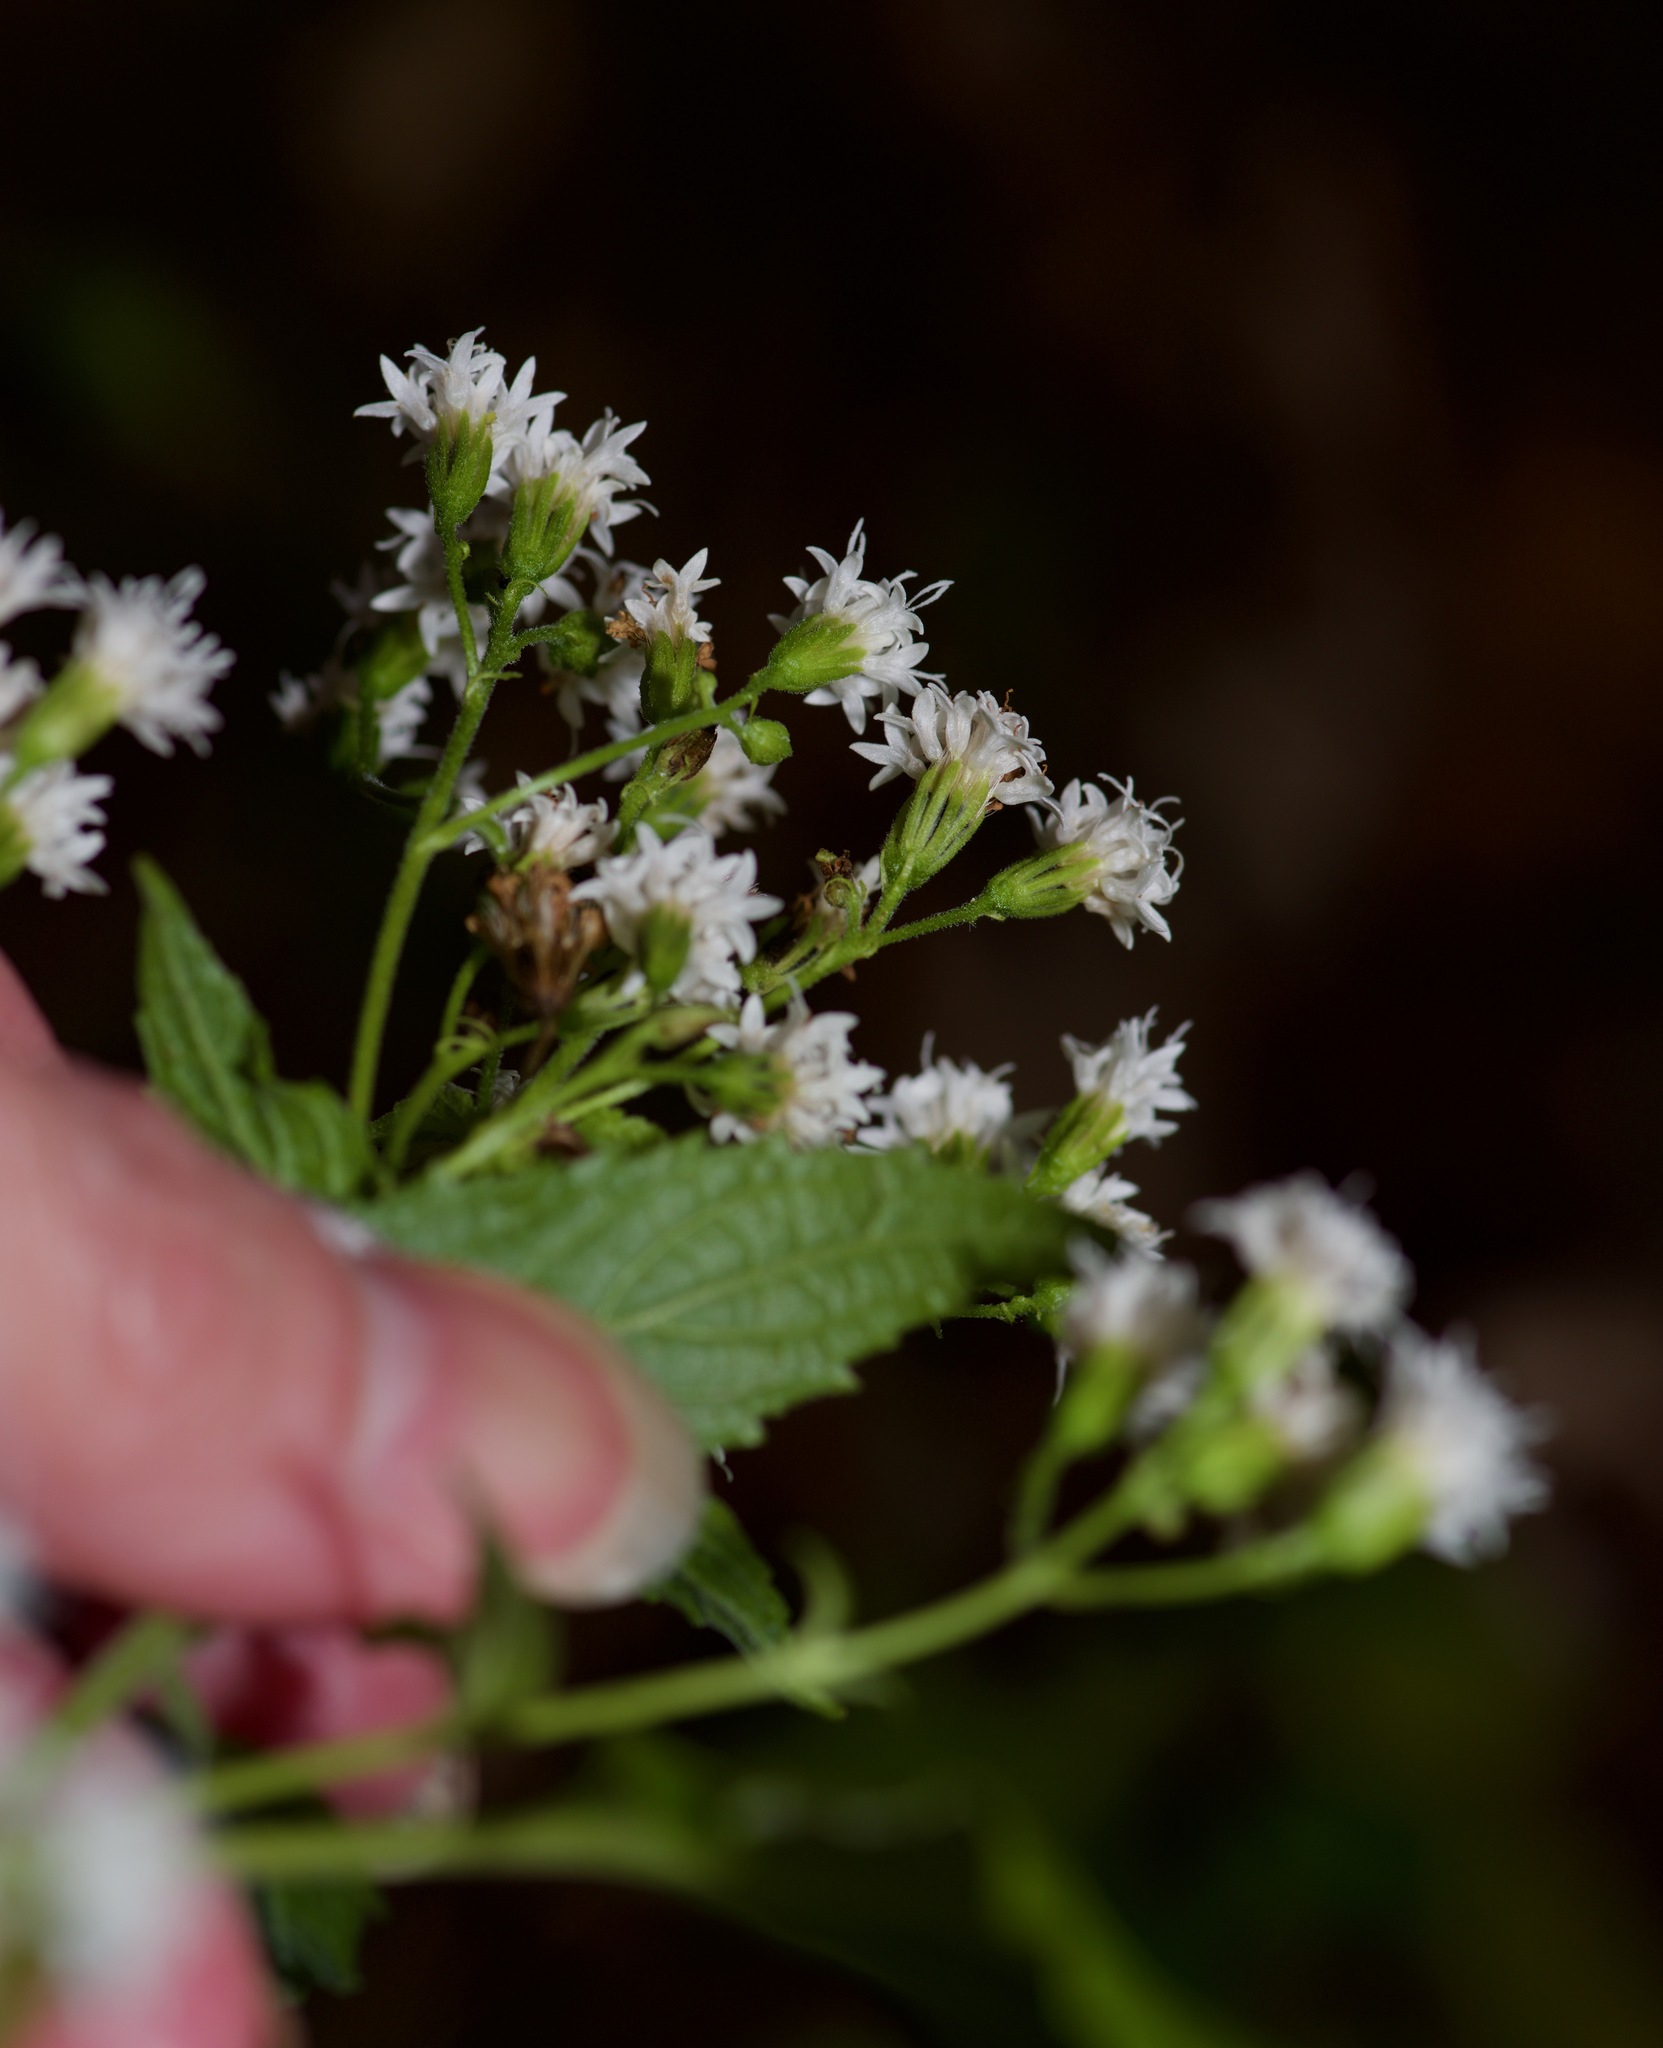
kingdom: Plantae
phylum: Tracheophyta
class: Magnoliopsida
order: Asterales
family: Asteraceae
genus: Ageratina
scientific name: Ageratina altissima
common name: White snakeroot
